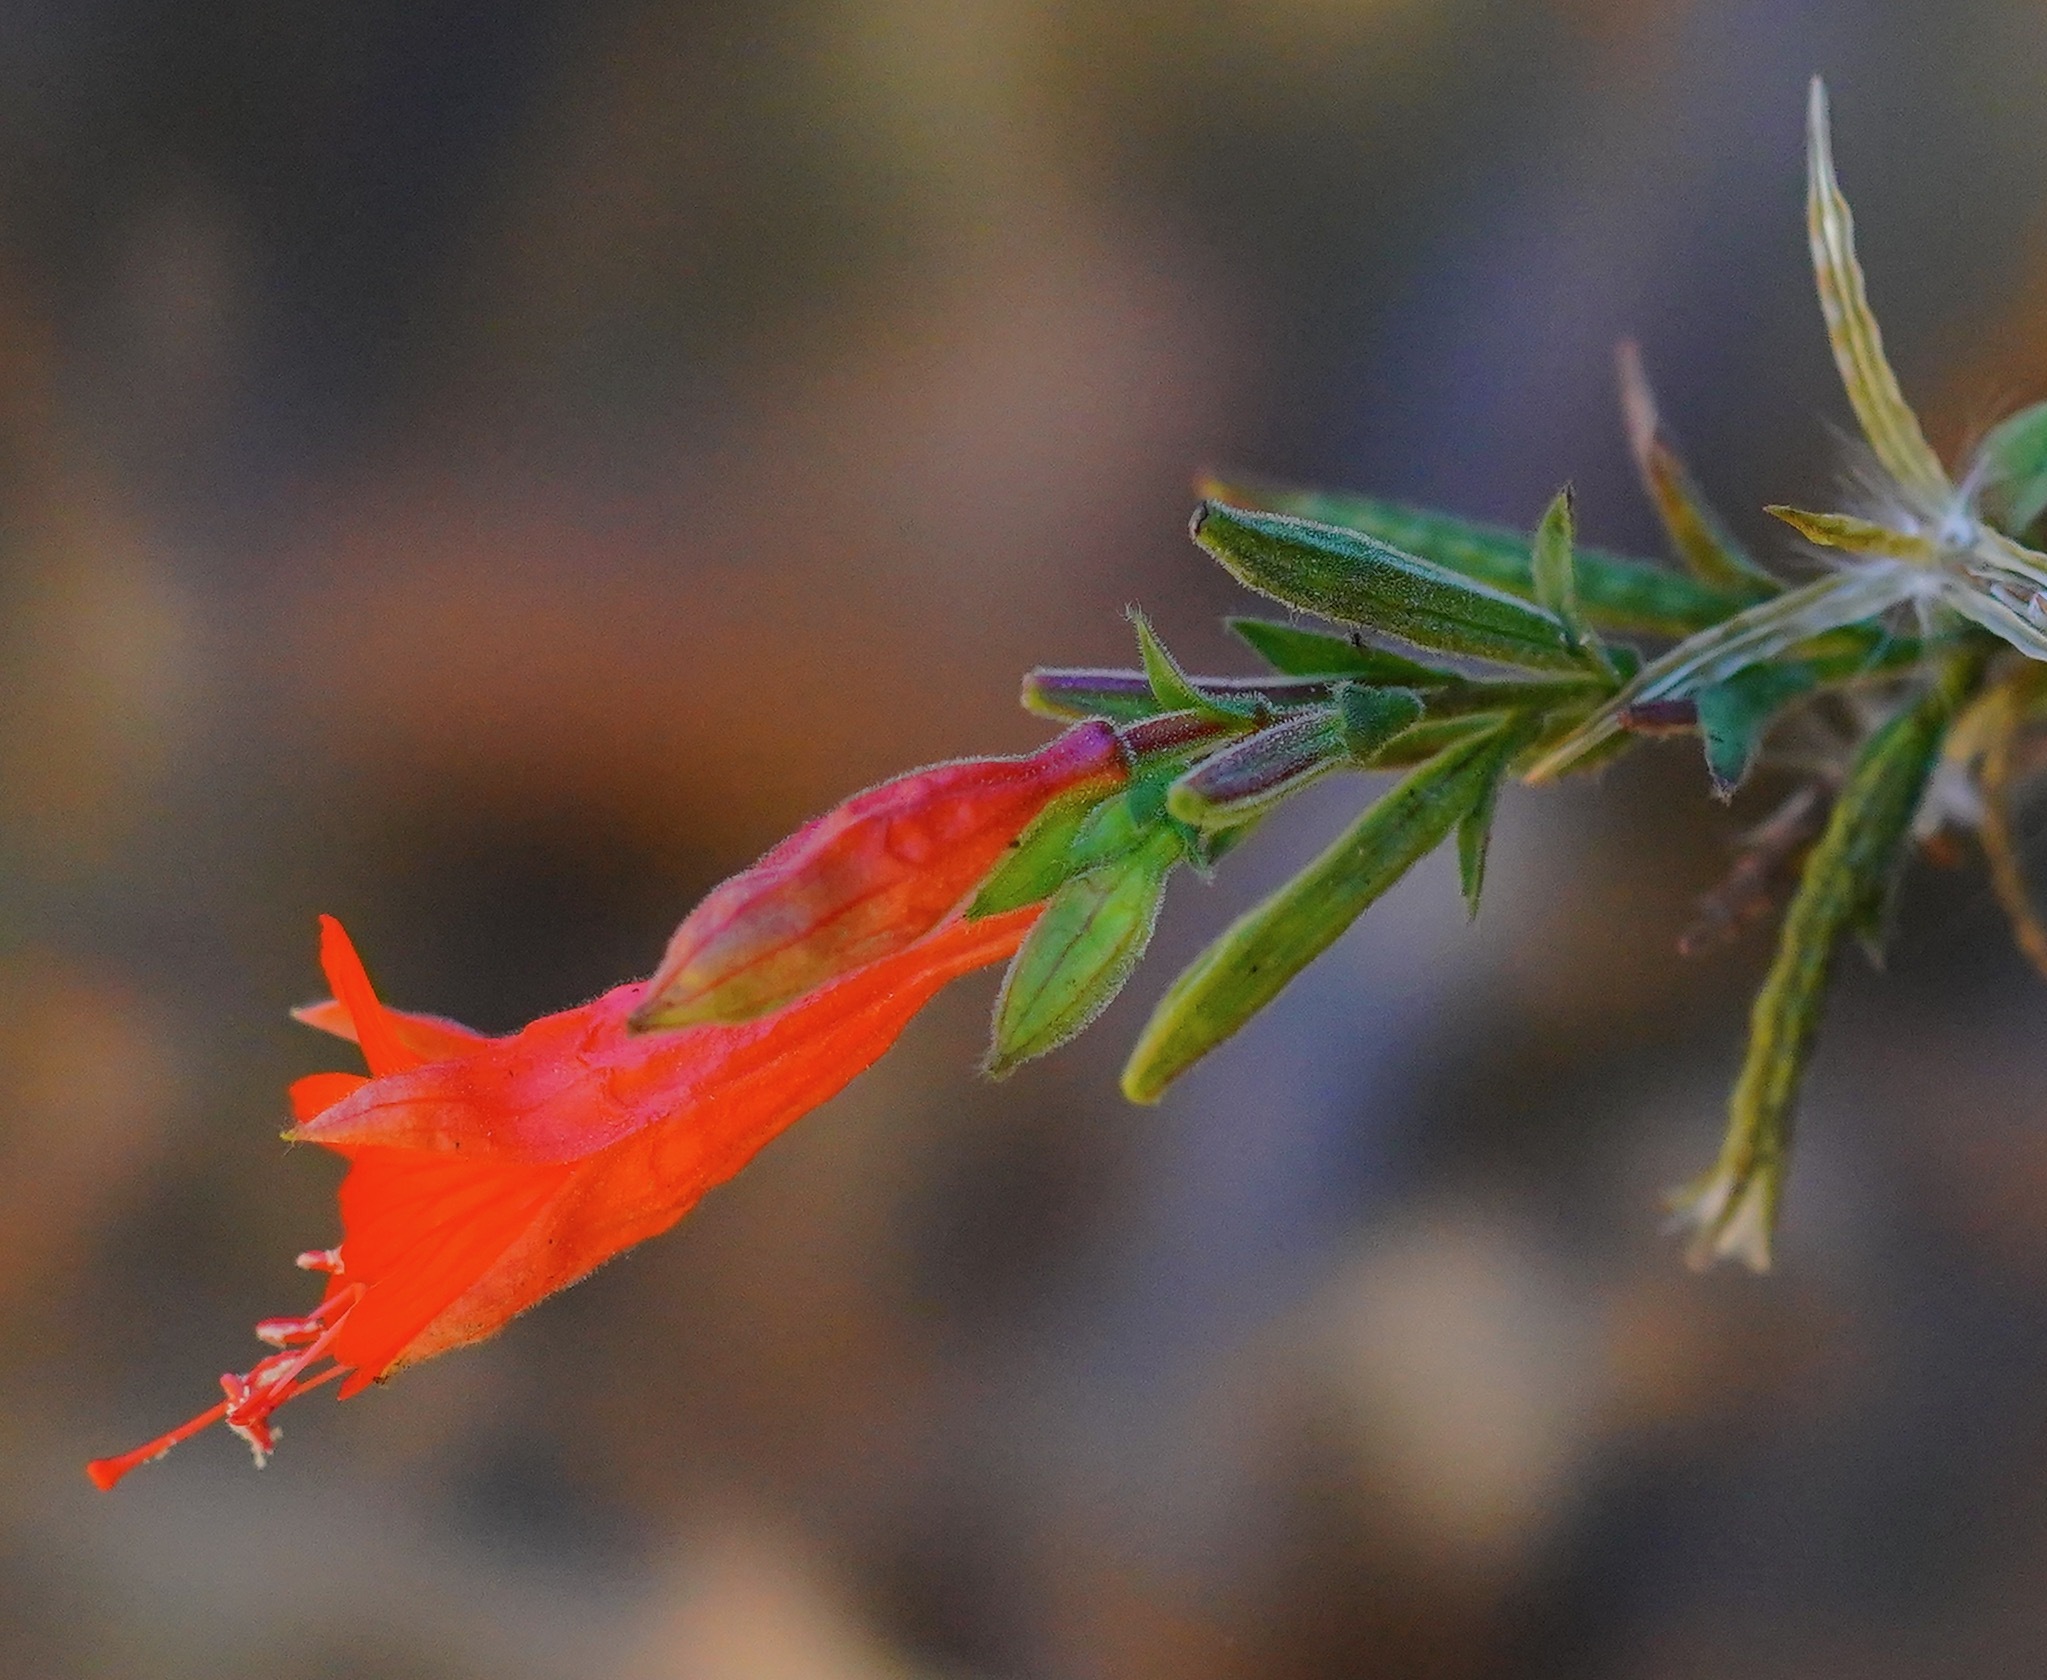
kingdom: Plantae
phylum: Tracheophyta
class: Magnoliopsida
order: Myrtales
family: Onagraceae
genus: Epilobium
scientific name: Epilobium canum
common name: California-fuchsia
